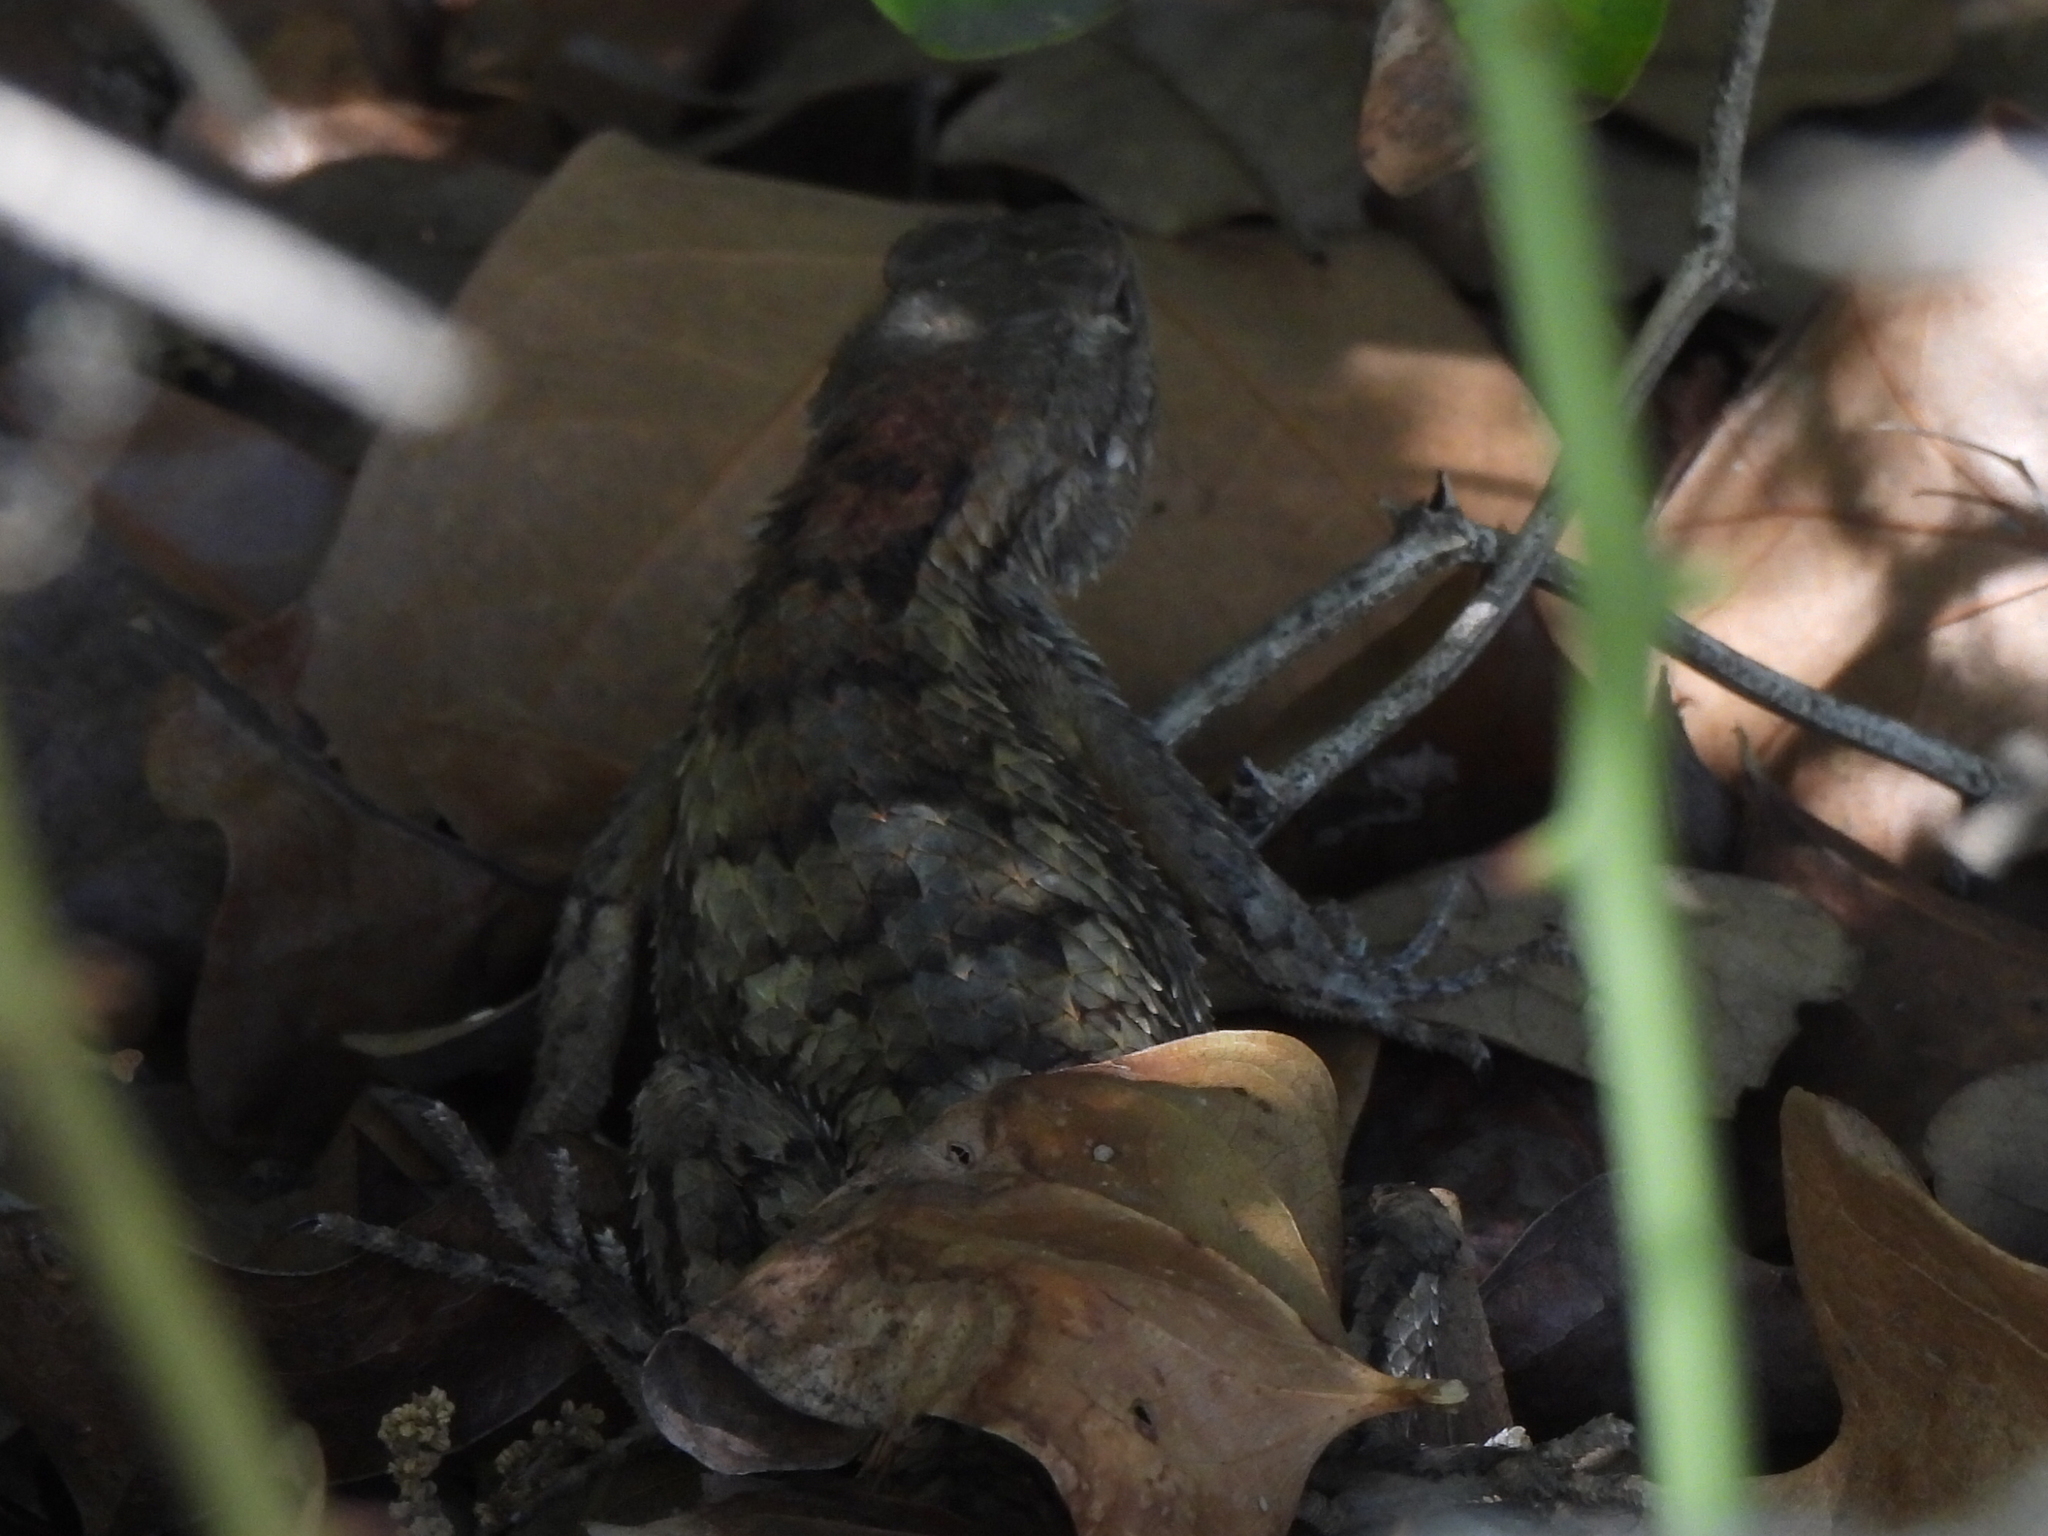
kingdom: Animalia
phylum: Chordata
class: Squamata
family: Phrynosomatidae
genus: Sceloporus
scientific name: Sceloporus olivaceus
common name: Texas spiny lizard
